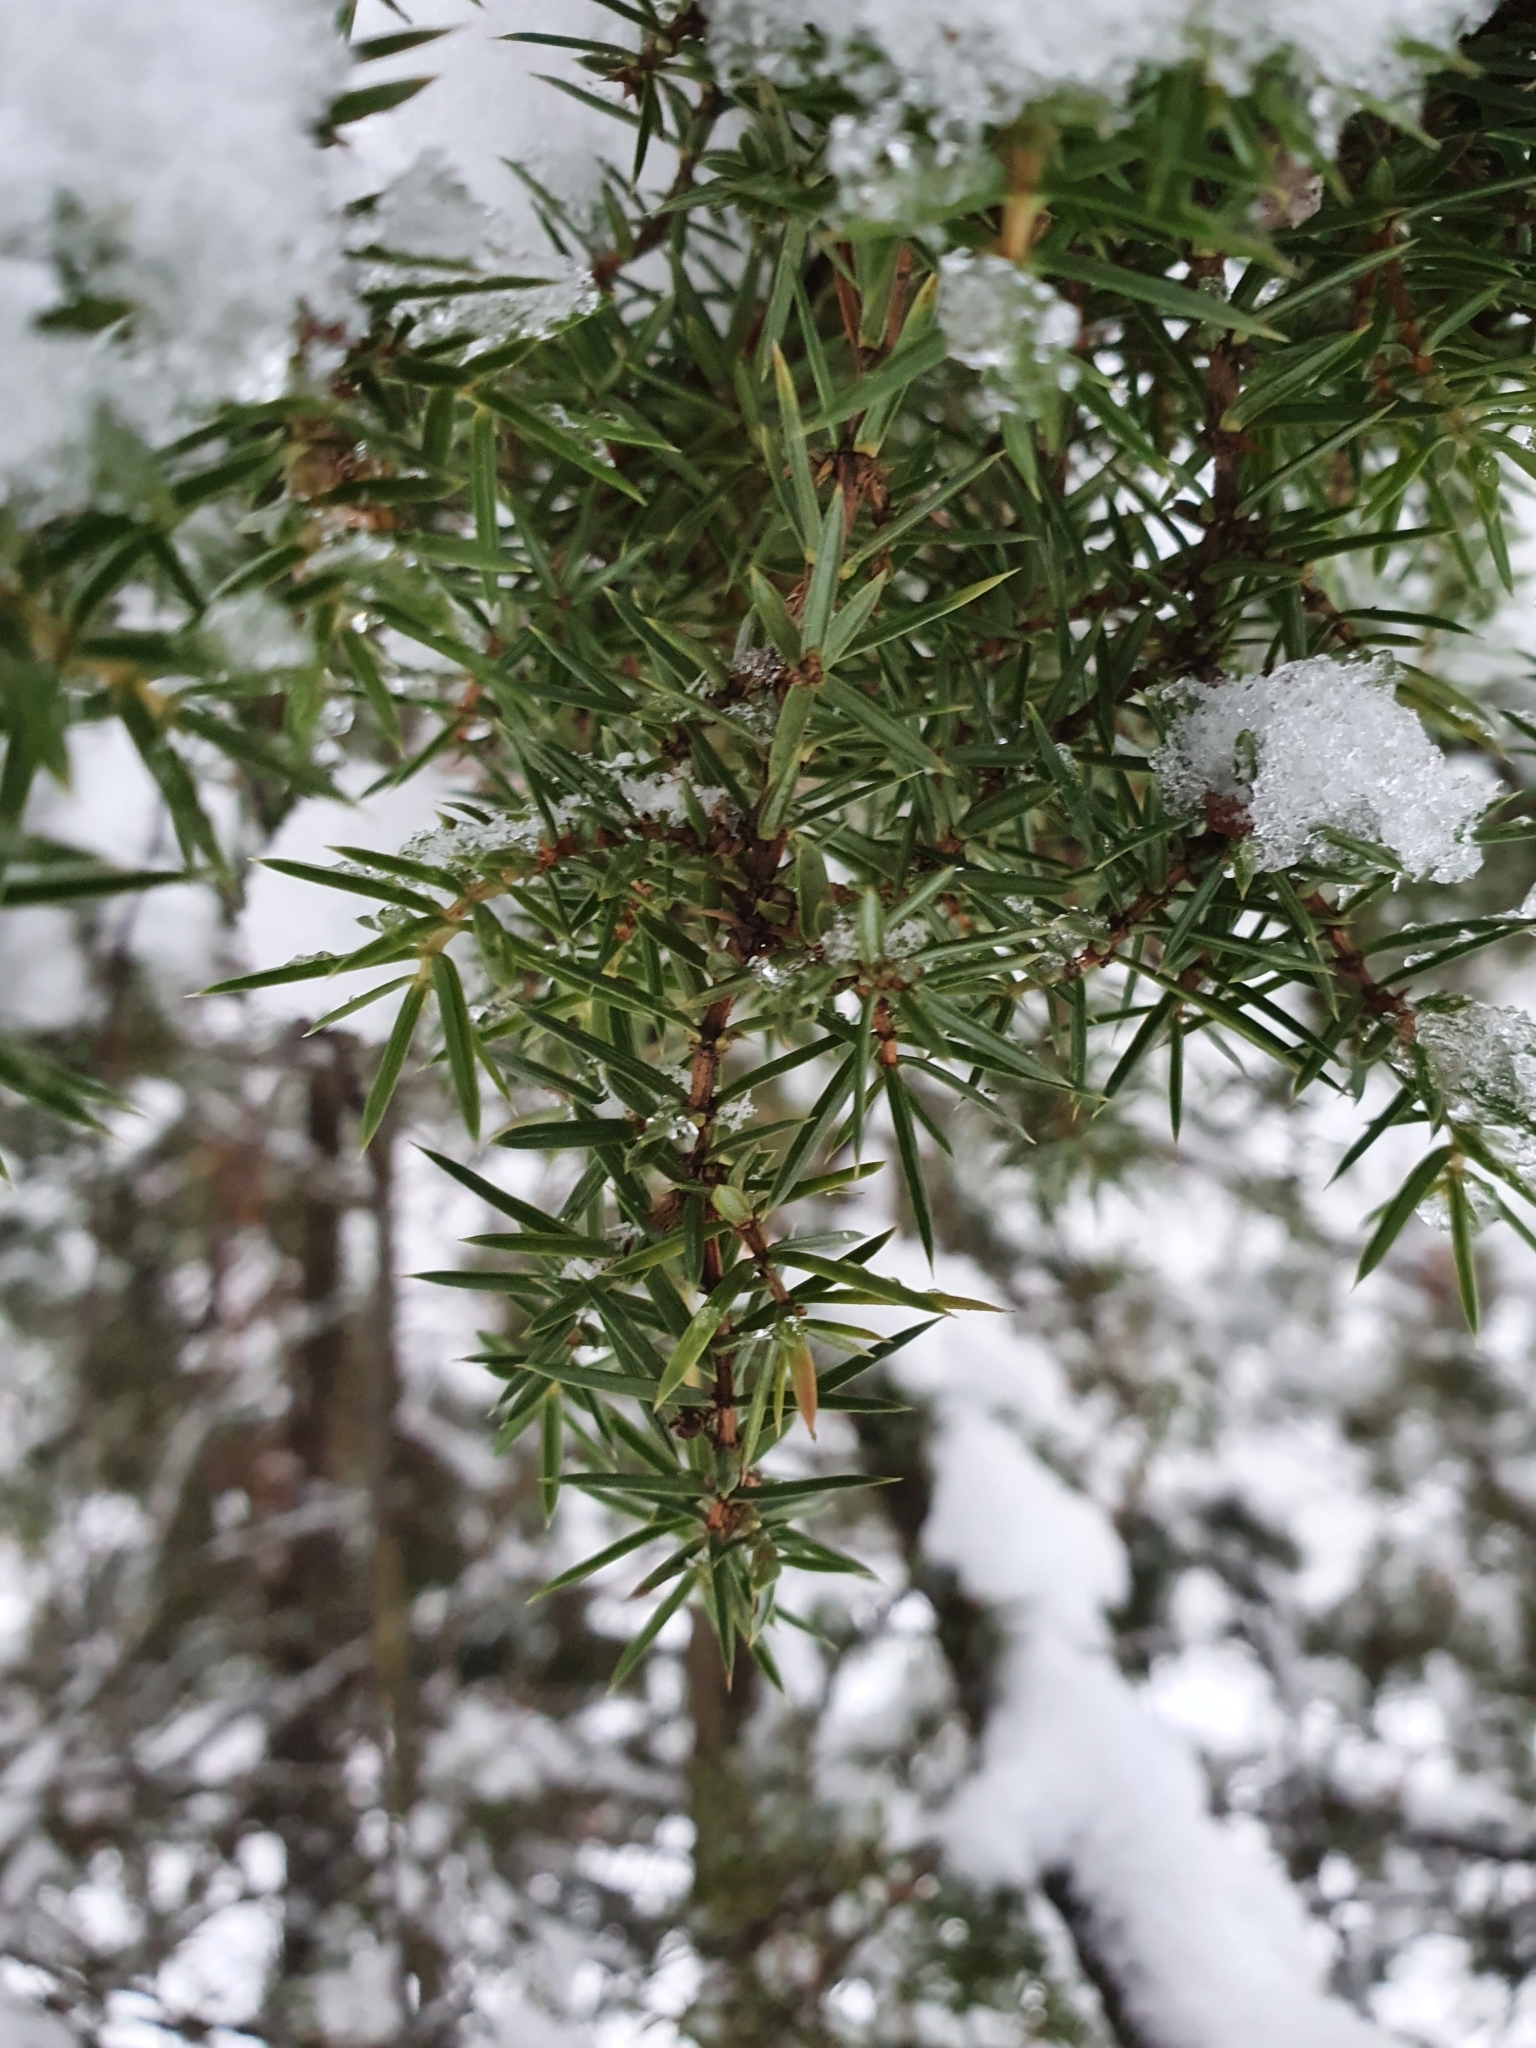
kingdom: Plantae
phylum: Tracheophyta
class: Pinopsida
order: Pinales
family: Cupressaceae
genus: Juniperus
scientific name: Juniperus communis
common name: Common juniper
